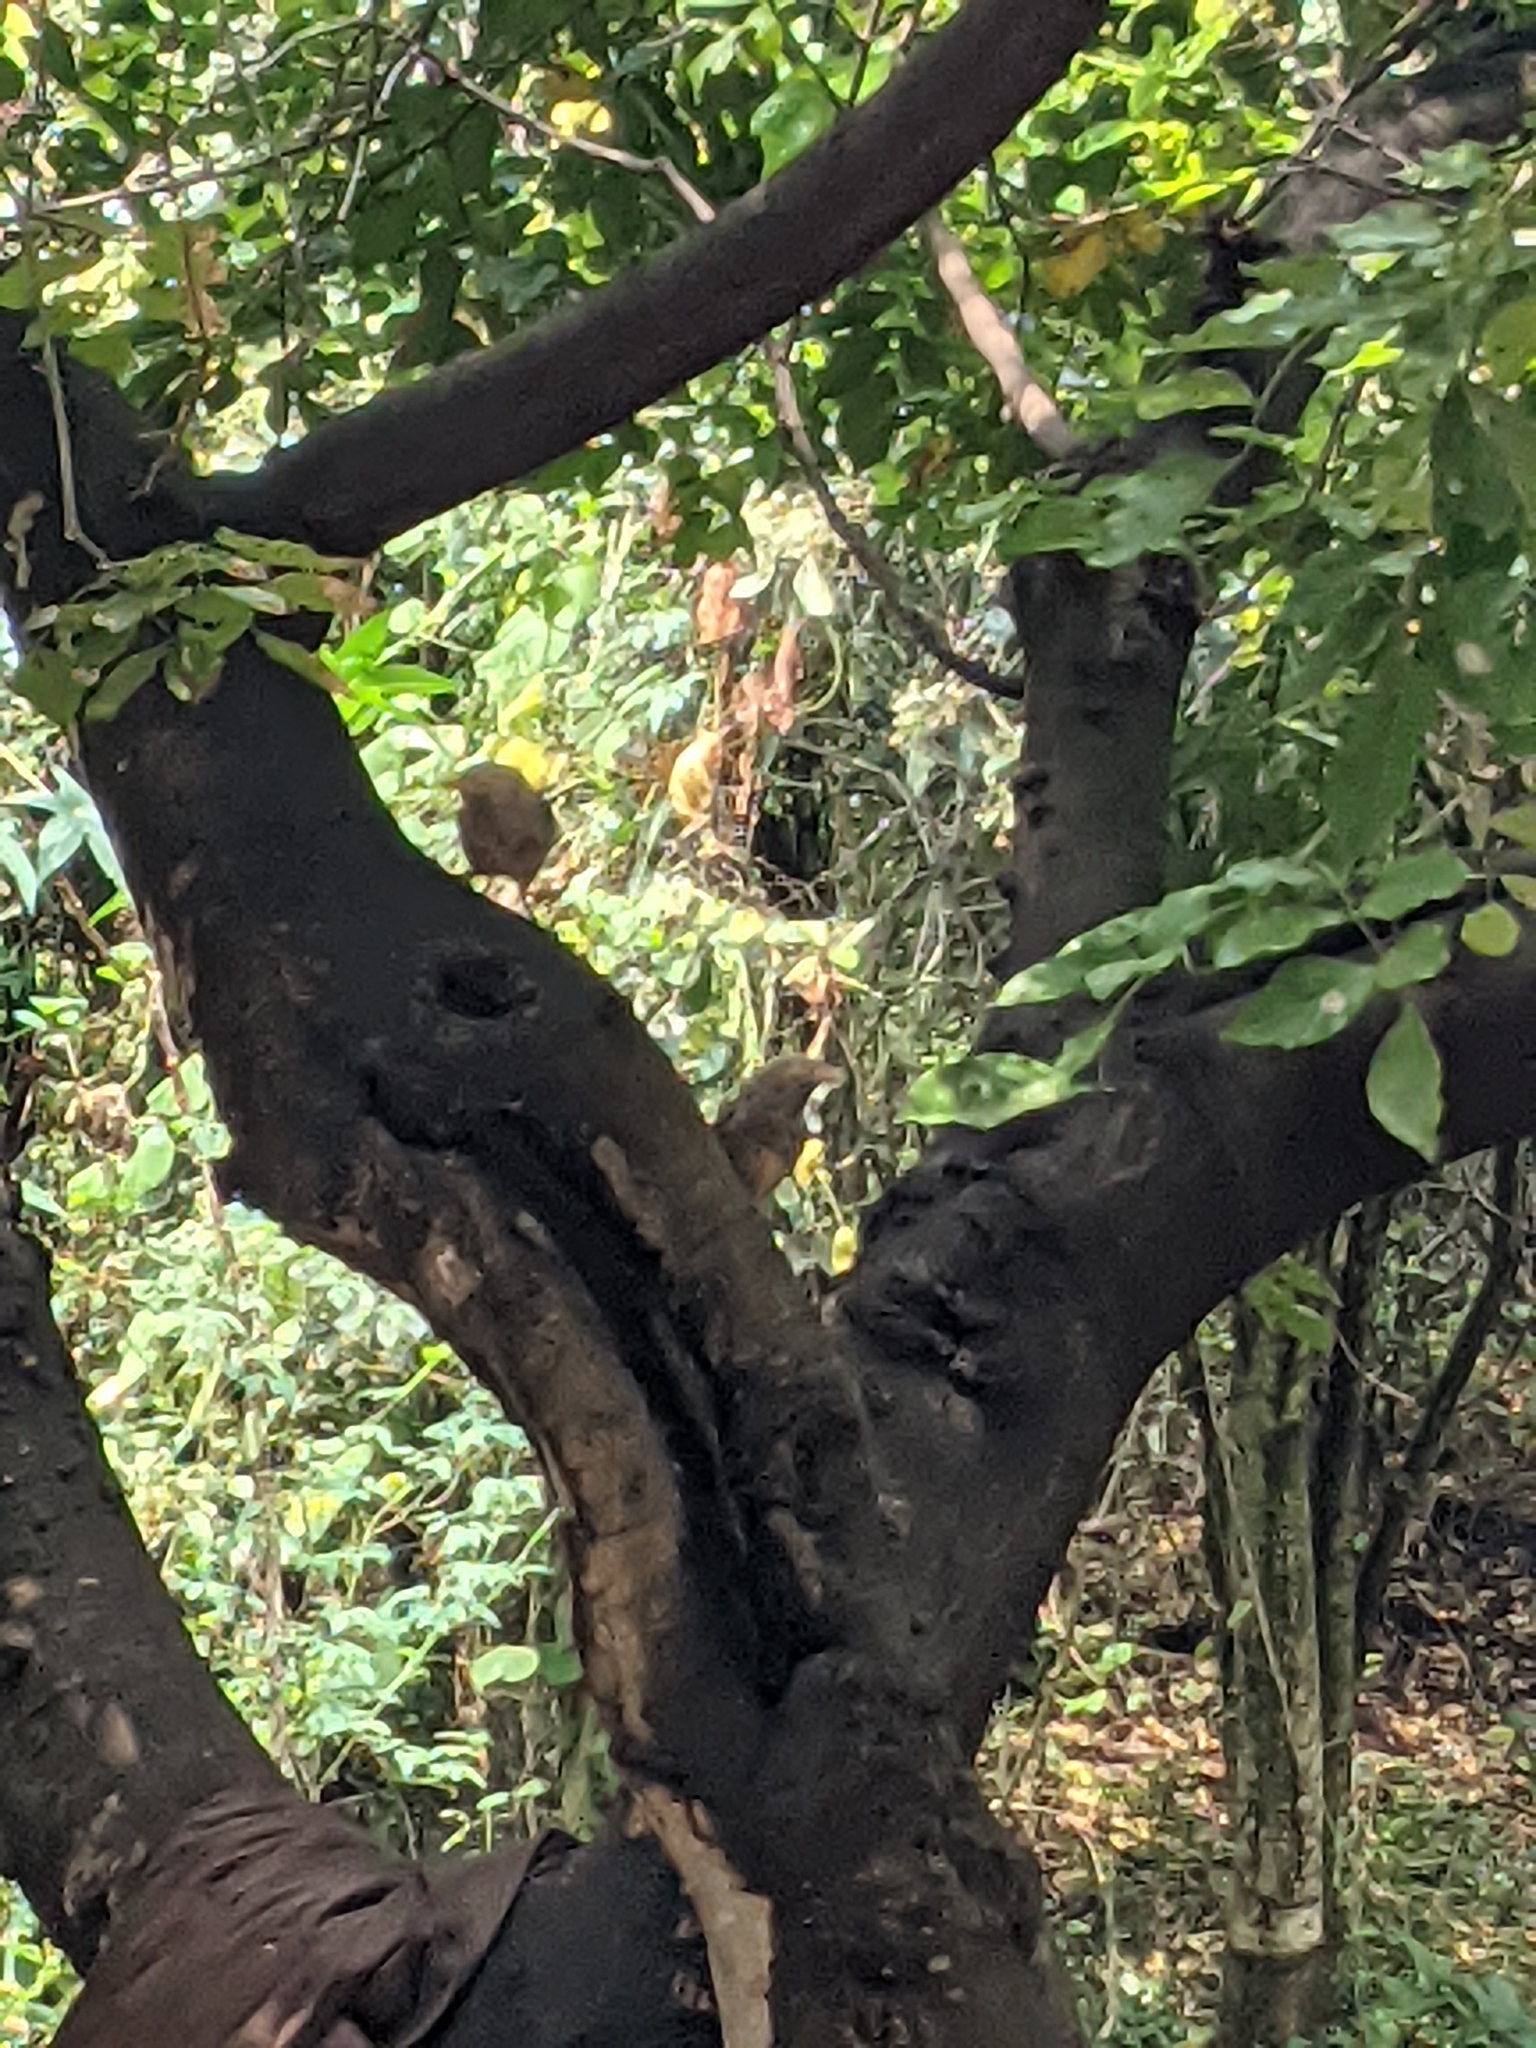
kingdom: Animalia
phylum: Chordata
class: Aves
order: Passeriformes
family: Leiothrichidae
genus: Turdoides
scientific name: Turdoides affinis
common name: Yellow-billed babbler
